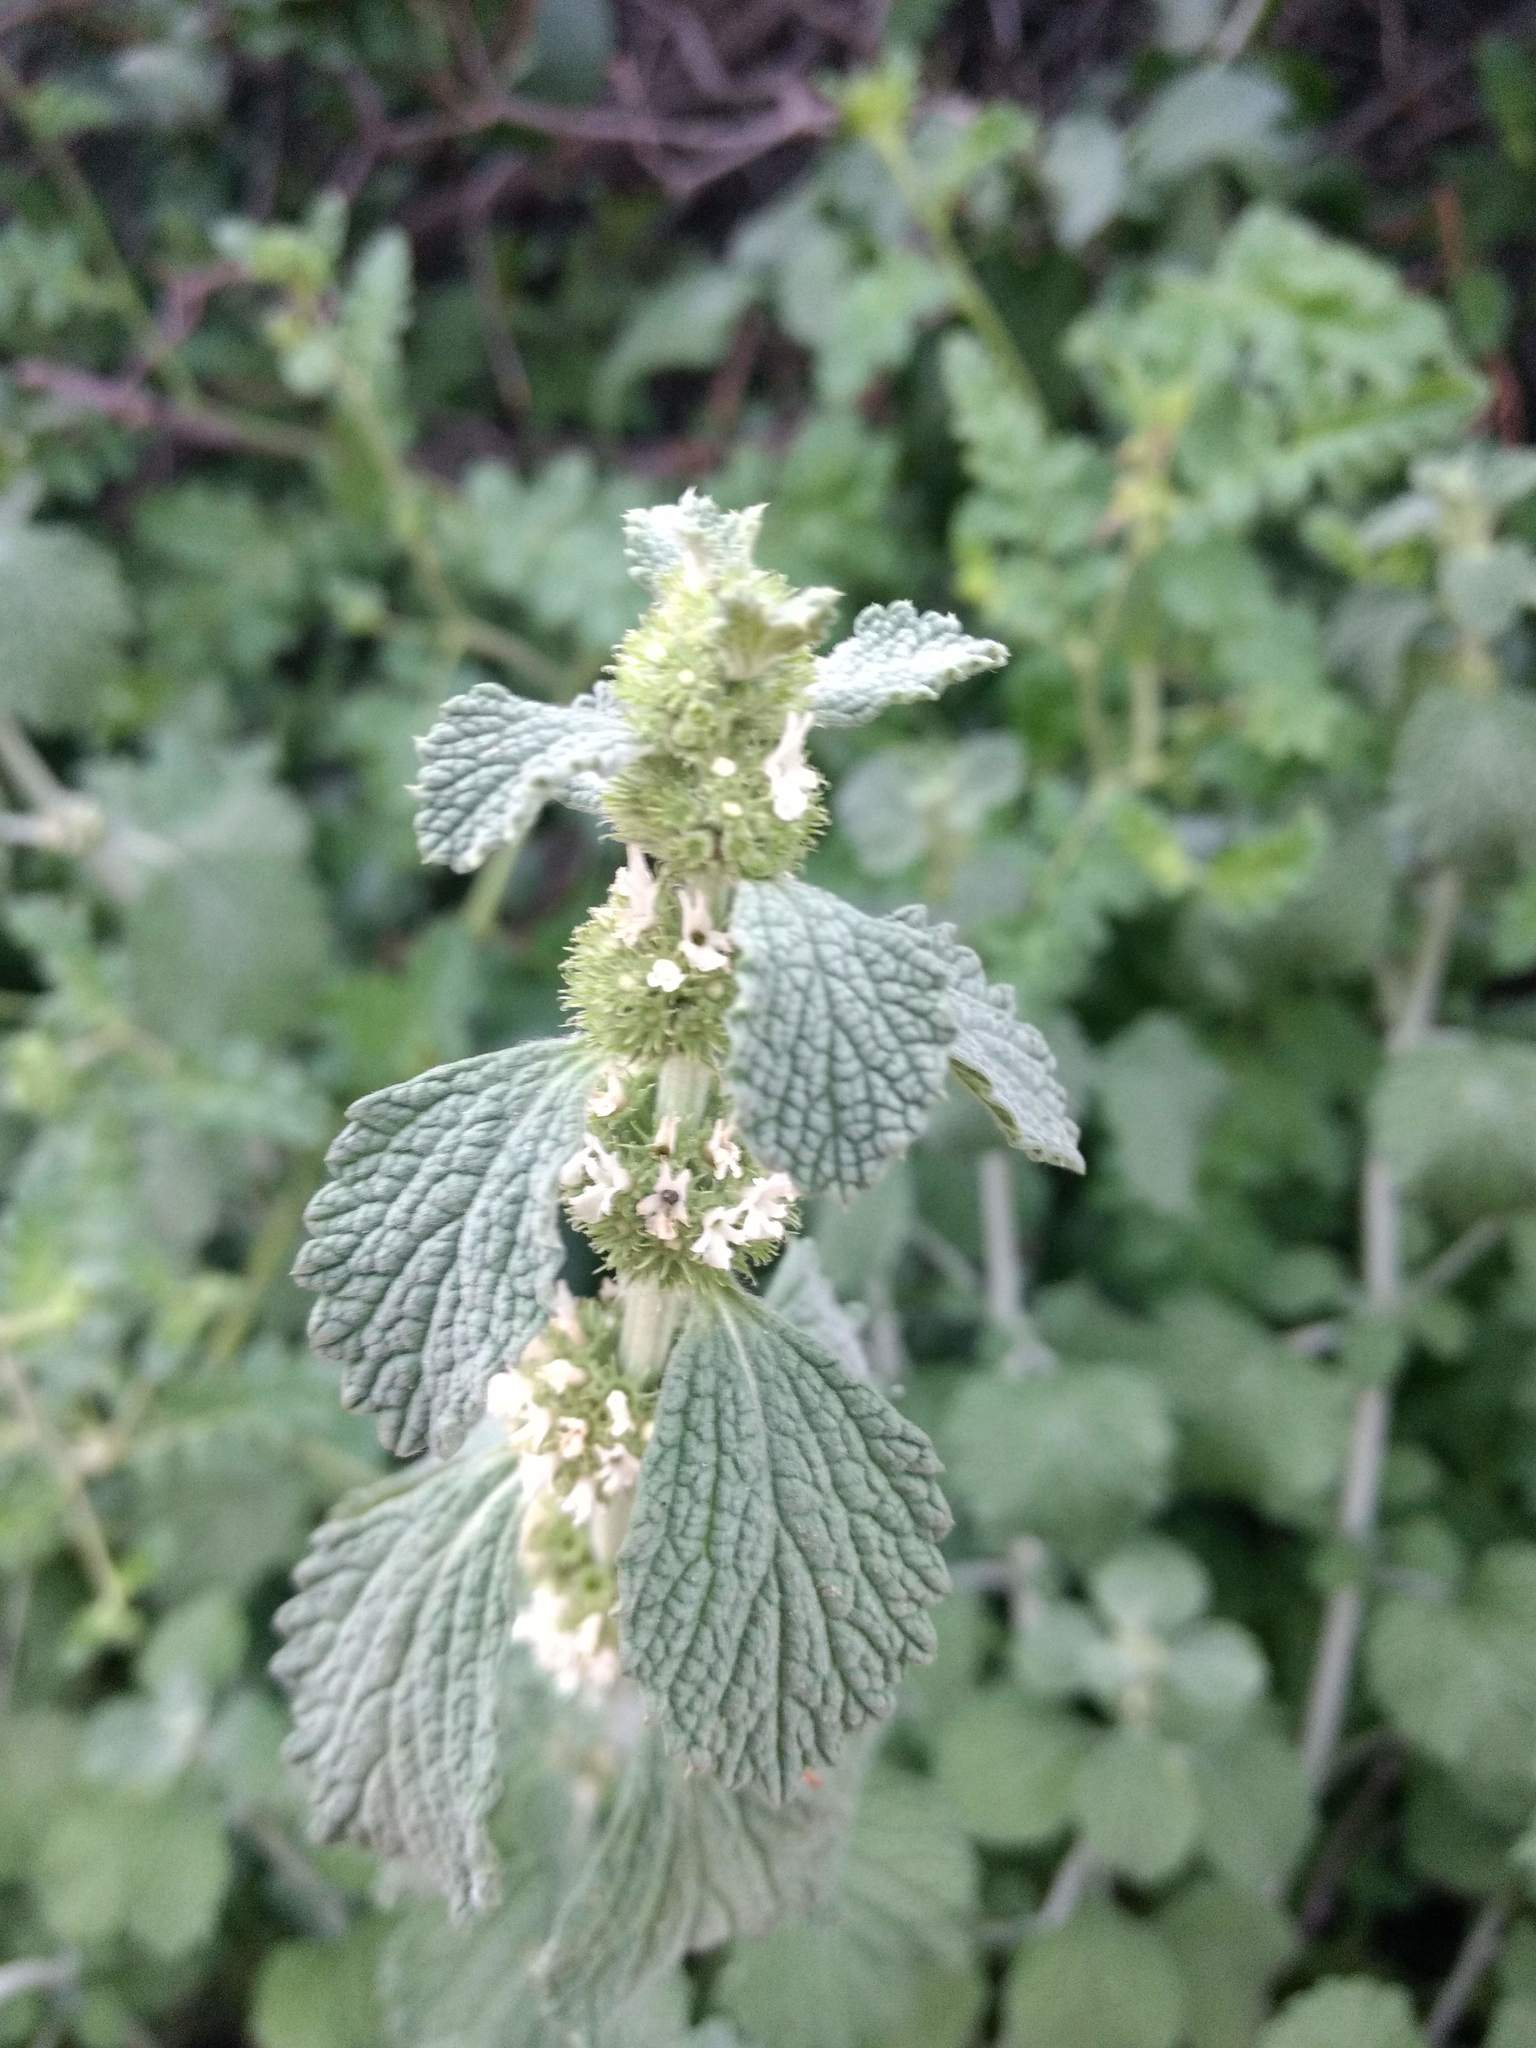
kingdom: Plantae
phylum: Tracheophyta
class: Magnoliopsida
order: Lamiales
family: Lamiaceae
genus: Marrubium
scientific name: Marrubium vulgare
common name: Horehound
